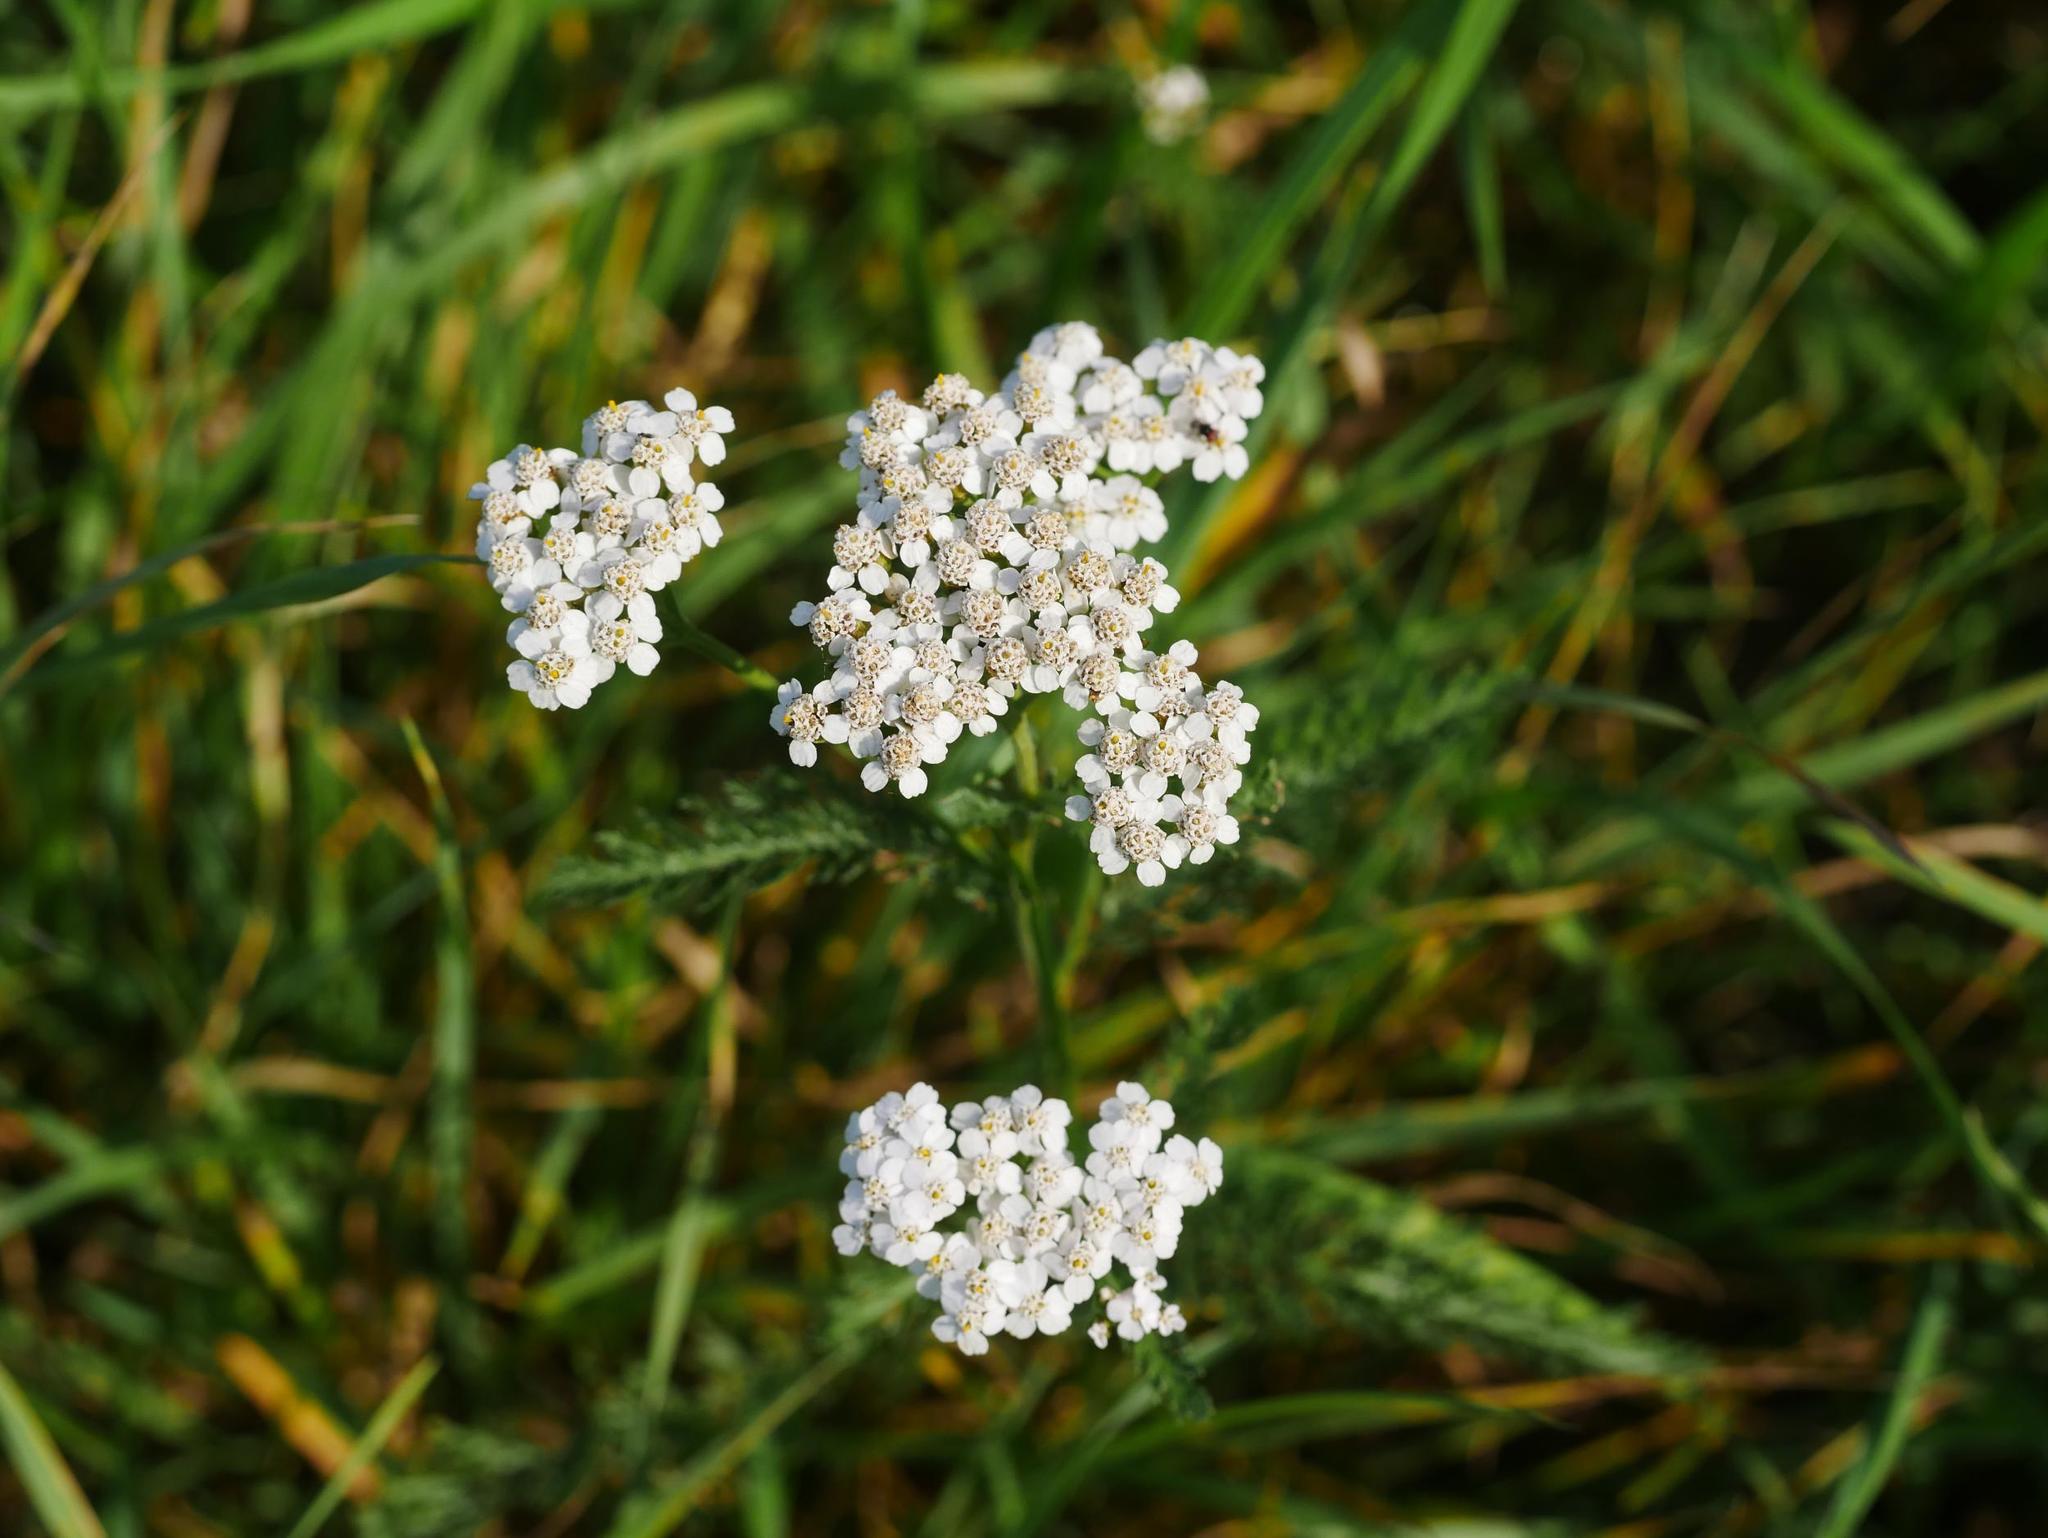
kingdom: Plantae
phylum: Tracheophyta
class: Magnoliopsida
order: Asterales
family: Asteraceae
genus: Achillea
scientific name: Achillea millefolium
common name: Yarrow
